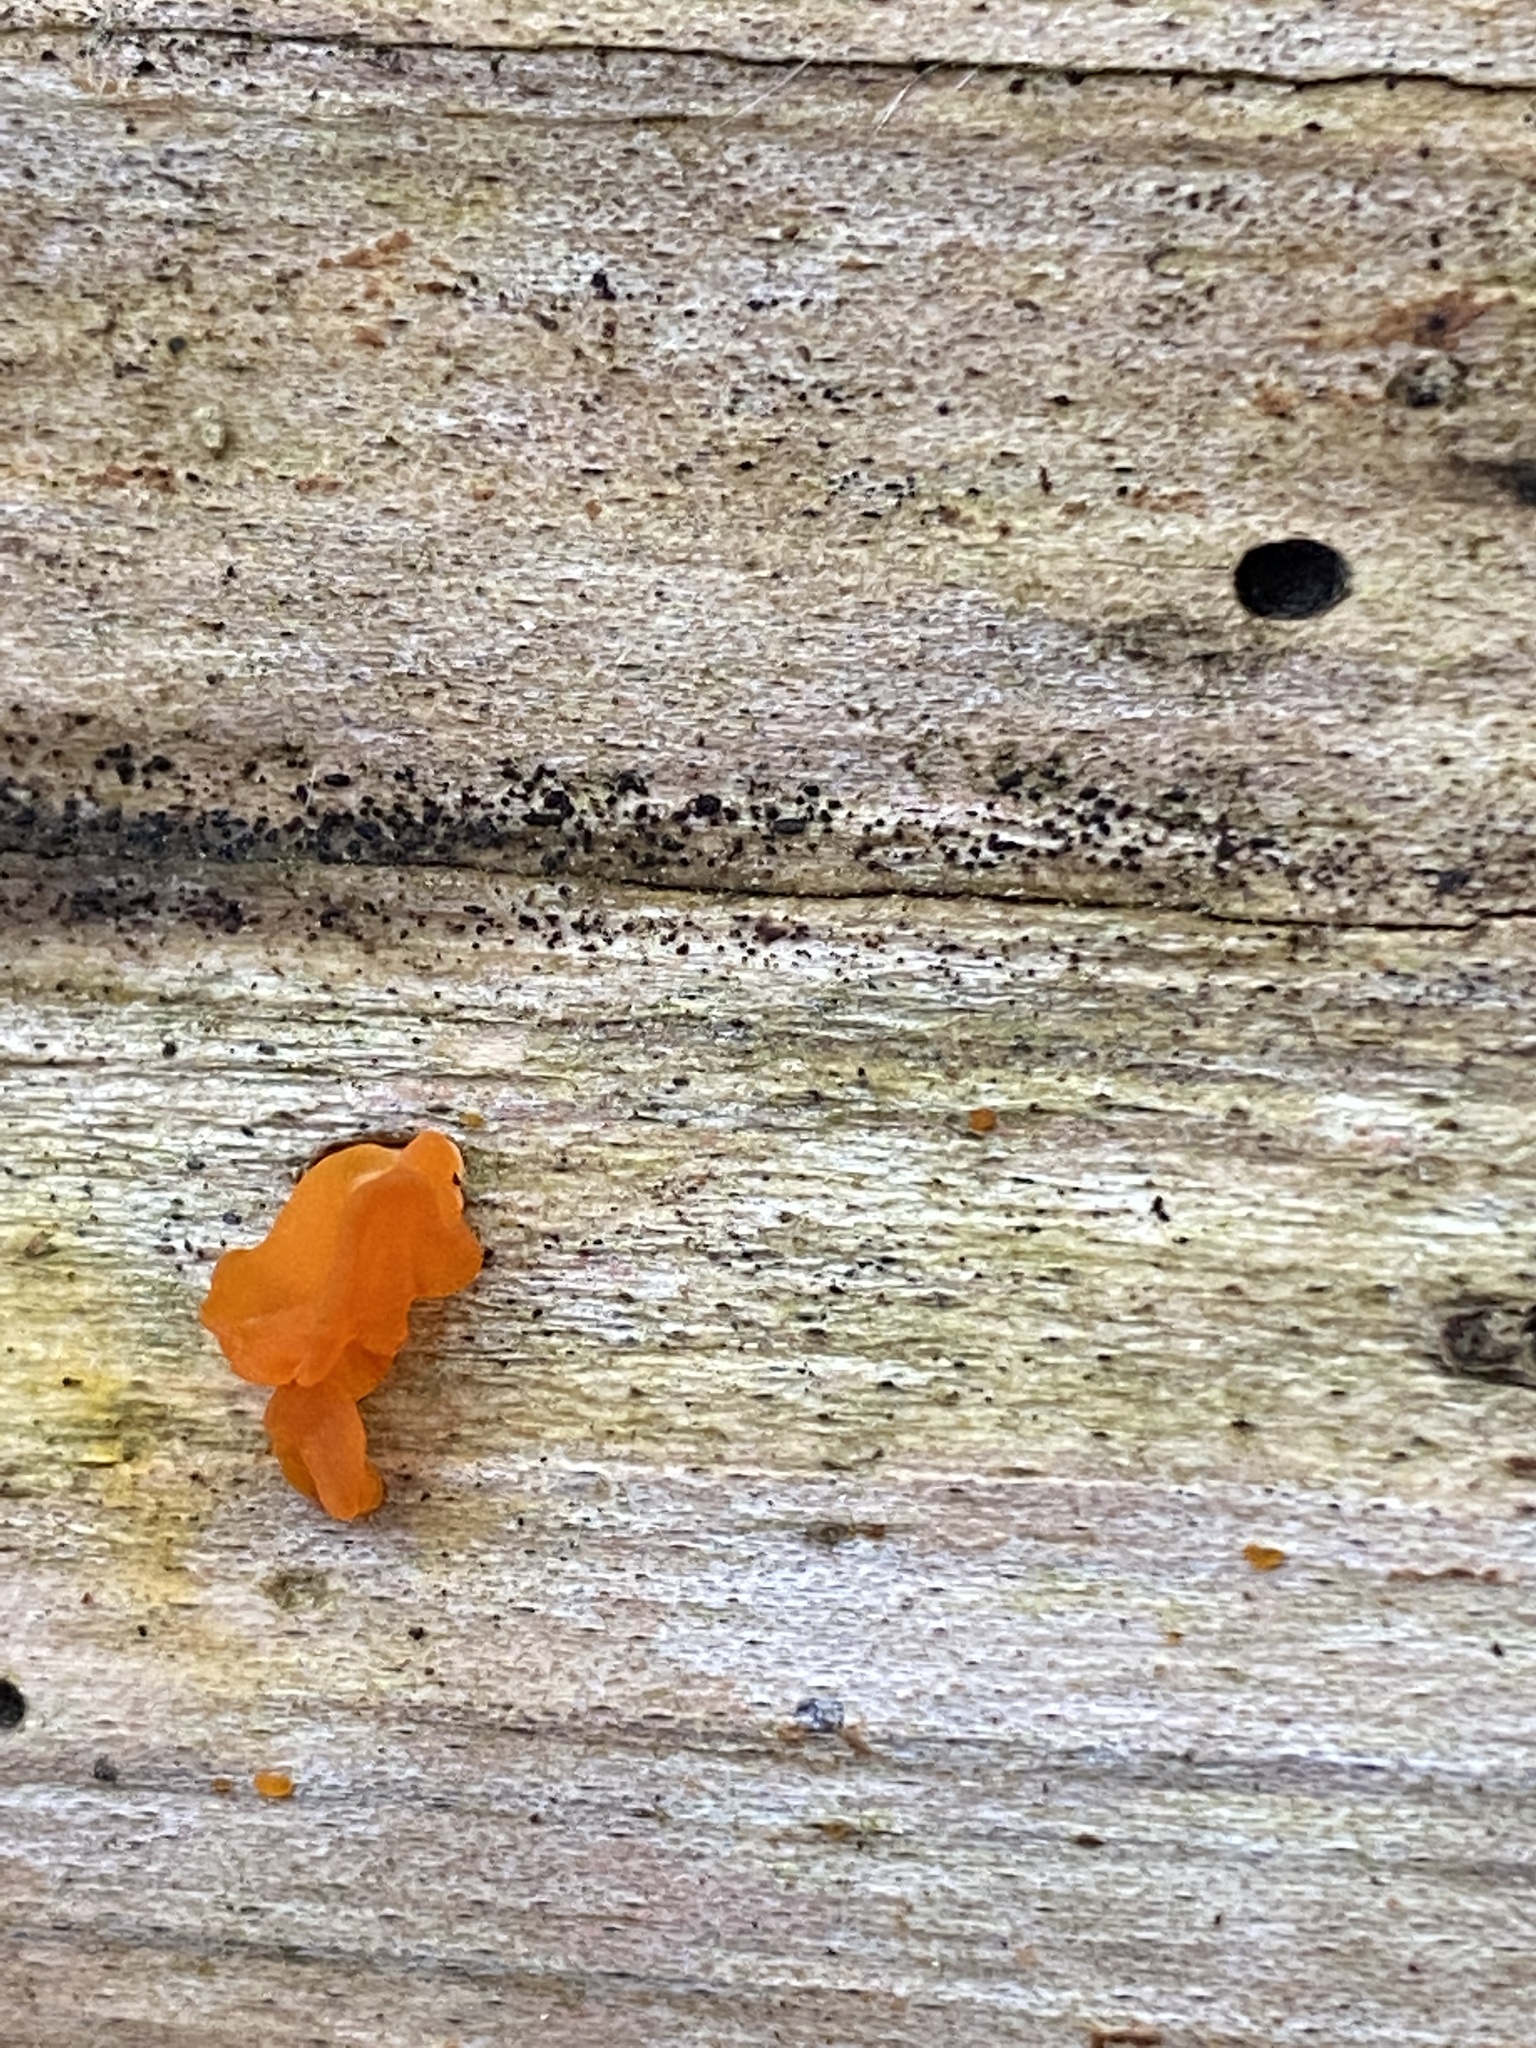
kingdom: Fungi
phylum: Basidiomycota
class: Dacrymycetes
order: Dacrymycetales
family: Dacrymycetaceae
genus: Dacrymyces
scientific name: Dacrymyces spathularius
